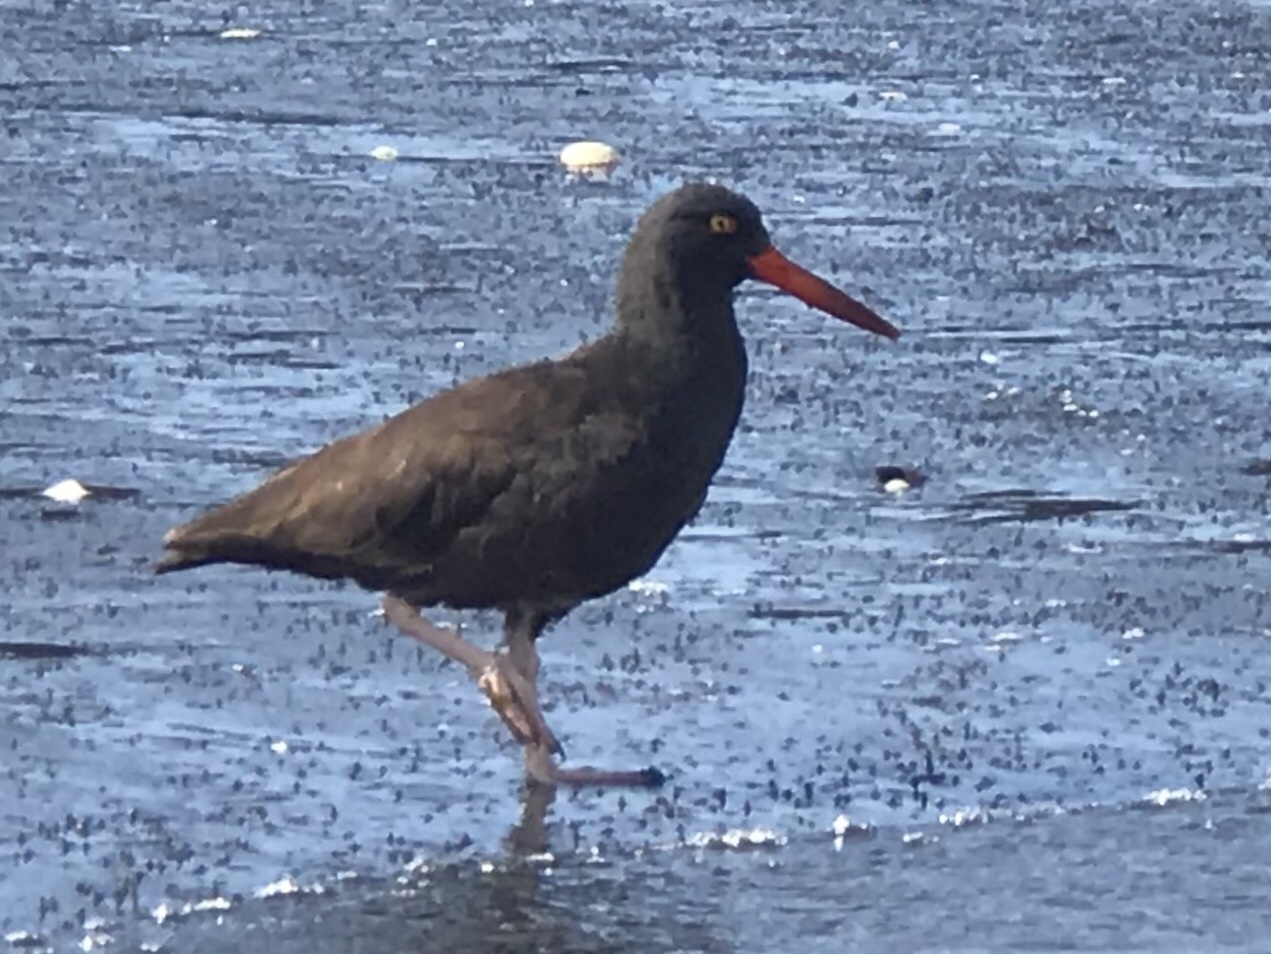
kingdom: Animalia
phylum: Chordata
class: Aves
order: Charadriiformes
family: Haematopodidae
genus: Haematopus
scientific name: Haematopus bachmani
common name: Black oystercatcher
